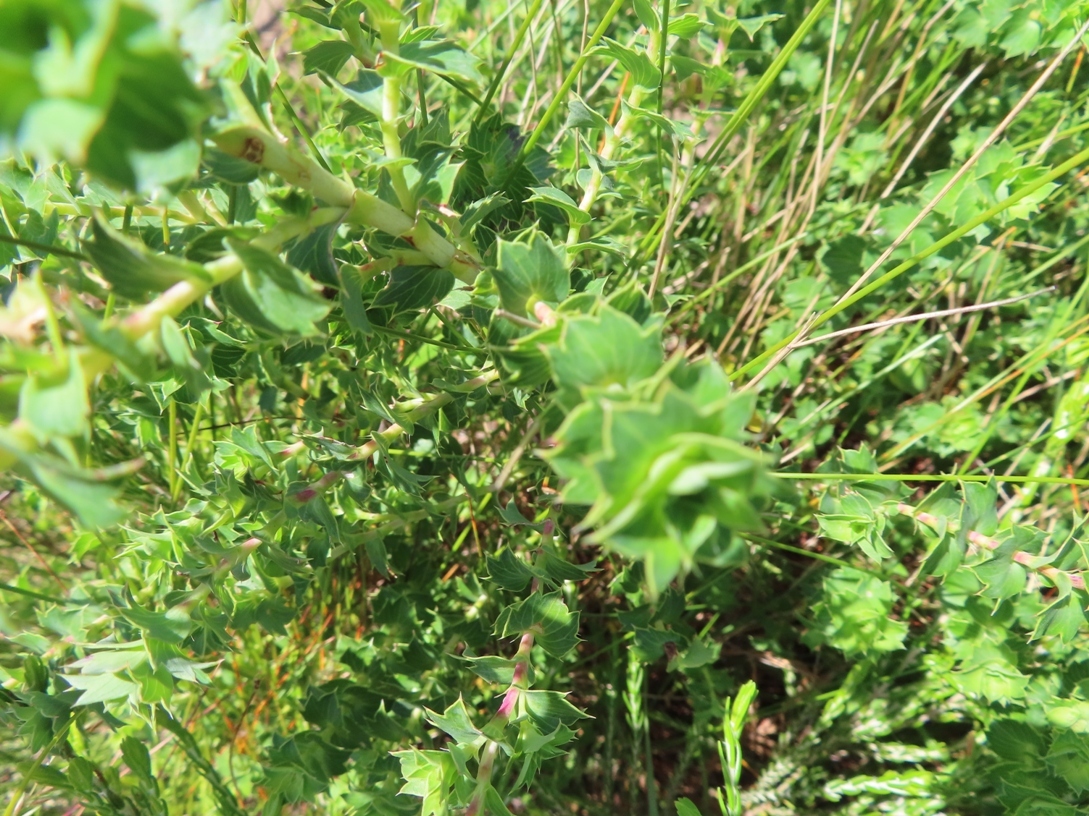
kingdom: Plantae
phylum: Tracheophyta
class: Magnoliopsida
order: Rosales
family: Rosaceae
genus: Cliffortia
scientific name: Cliffortia schlechteri
